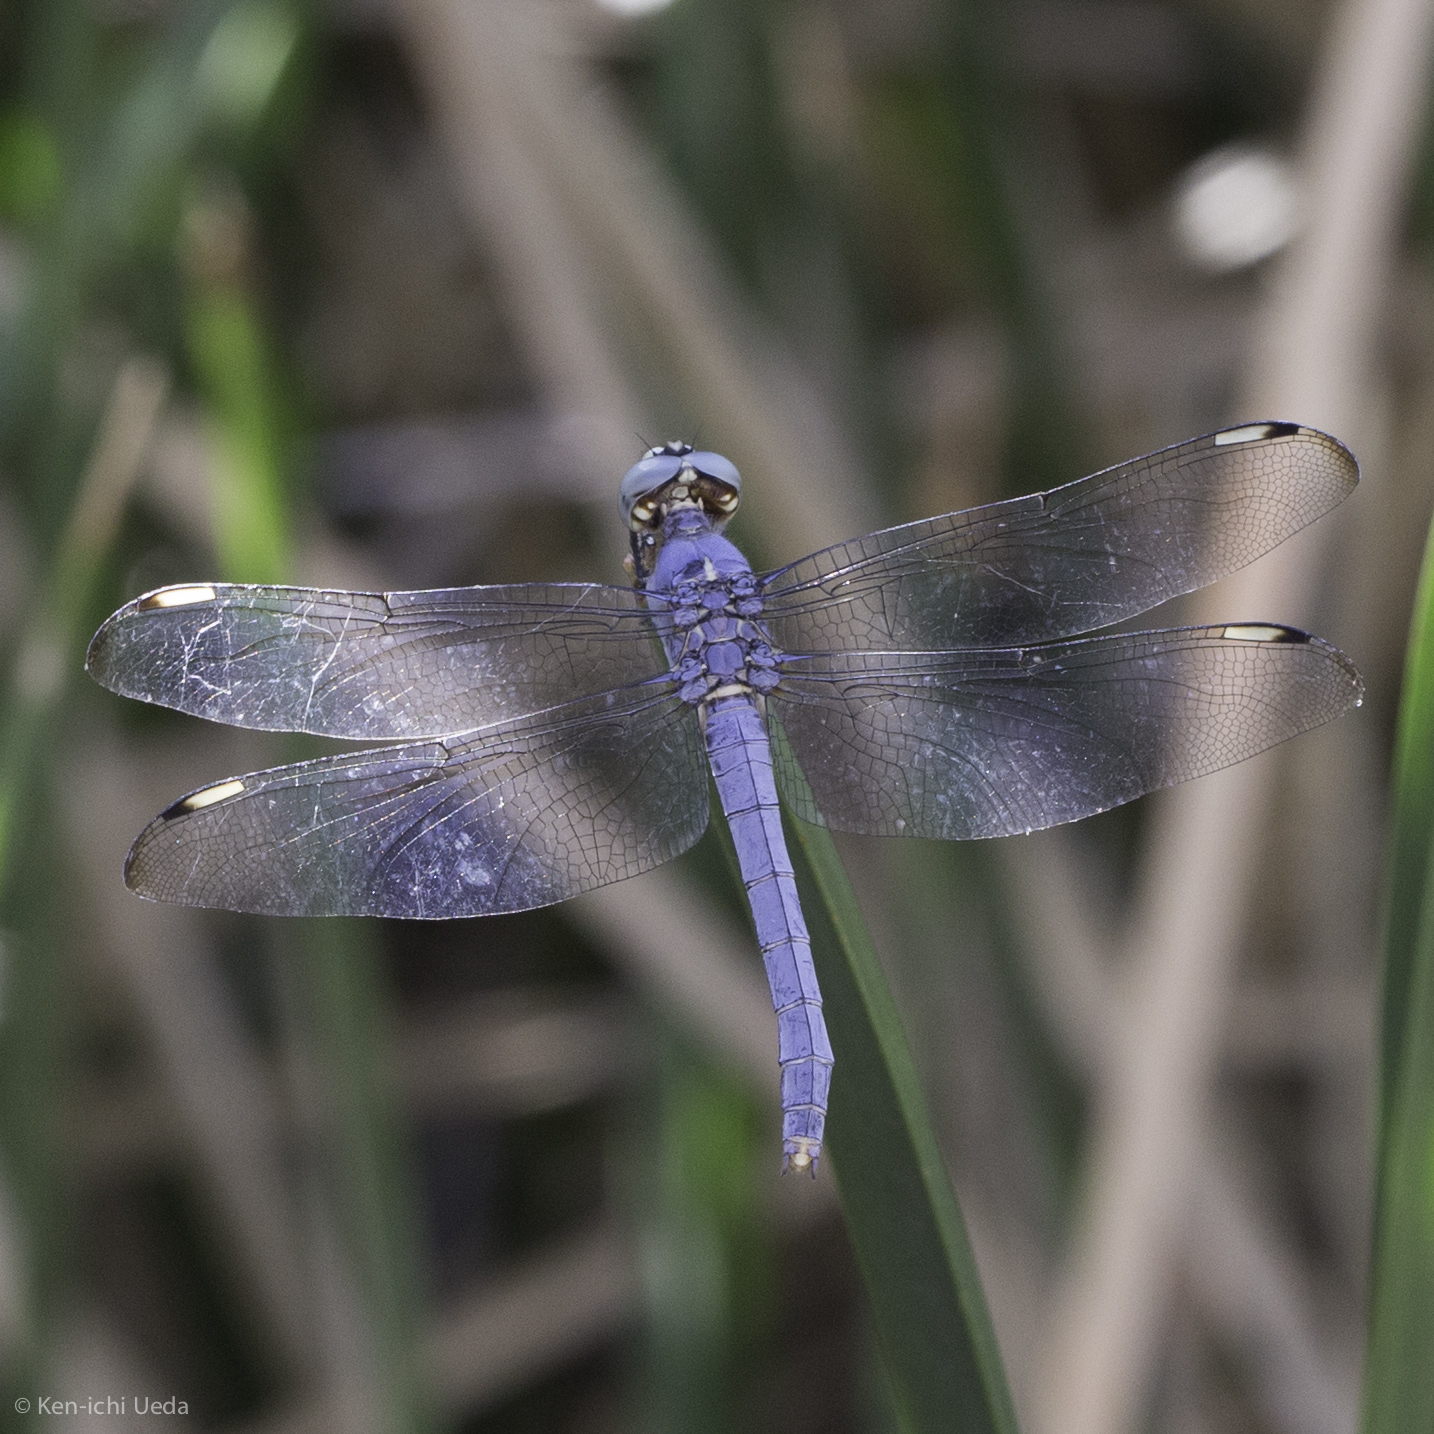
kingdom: Animalia
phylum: Arthropoda
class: Insecta
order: Odonata
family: Libellulidae
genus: Libellula
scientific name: Libellula comanche
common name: Comanche skimmer
